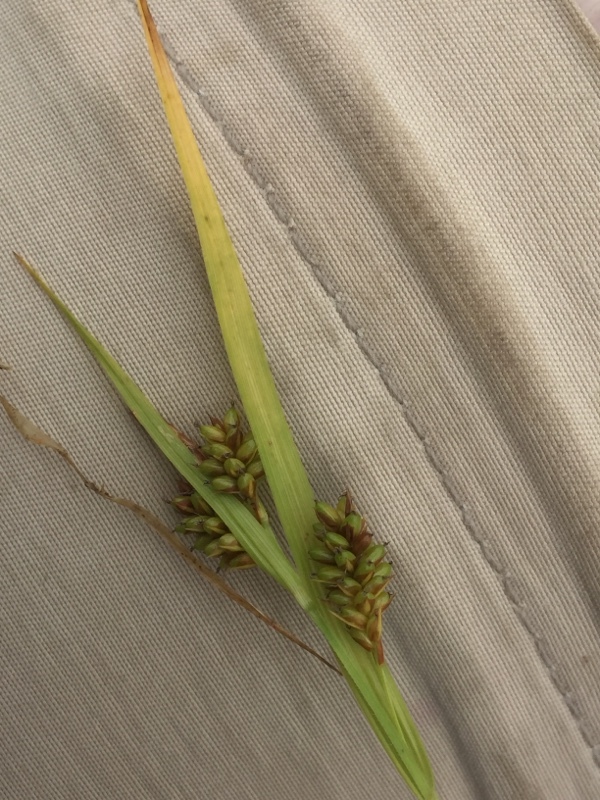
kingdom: Plantae
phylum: Tracheophyta
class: Liliopsida
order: Poales
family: Cyperaceae
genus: Carex
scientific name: Carex pallescens
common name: Pale sedge
